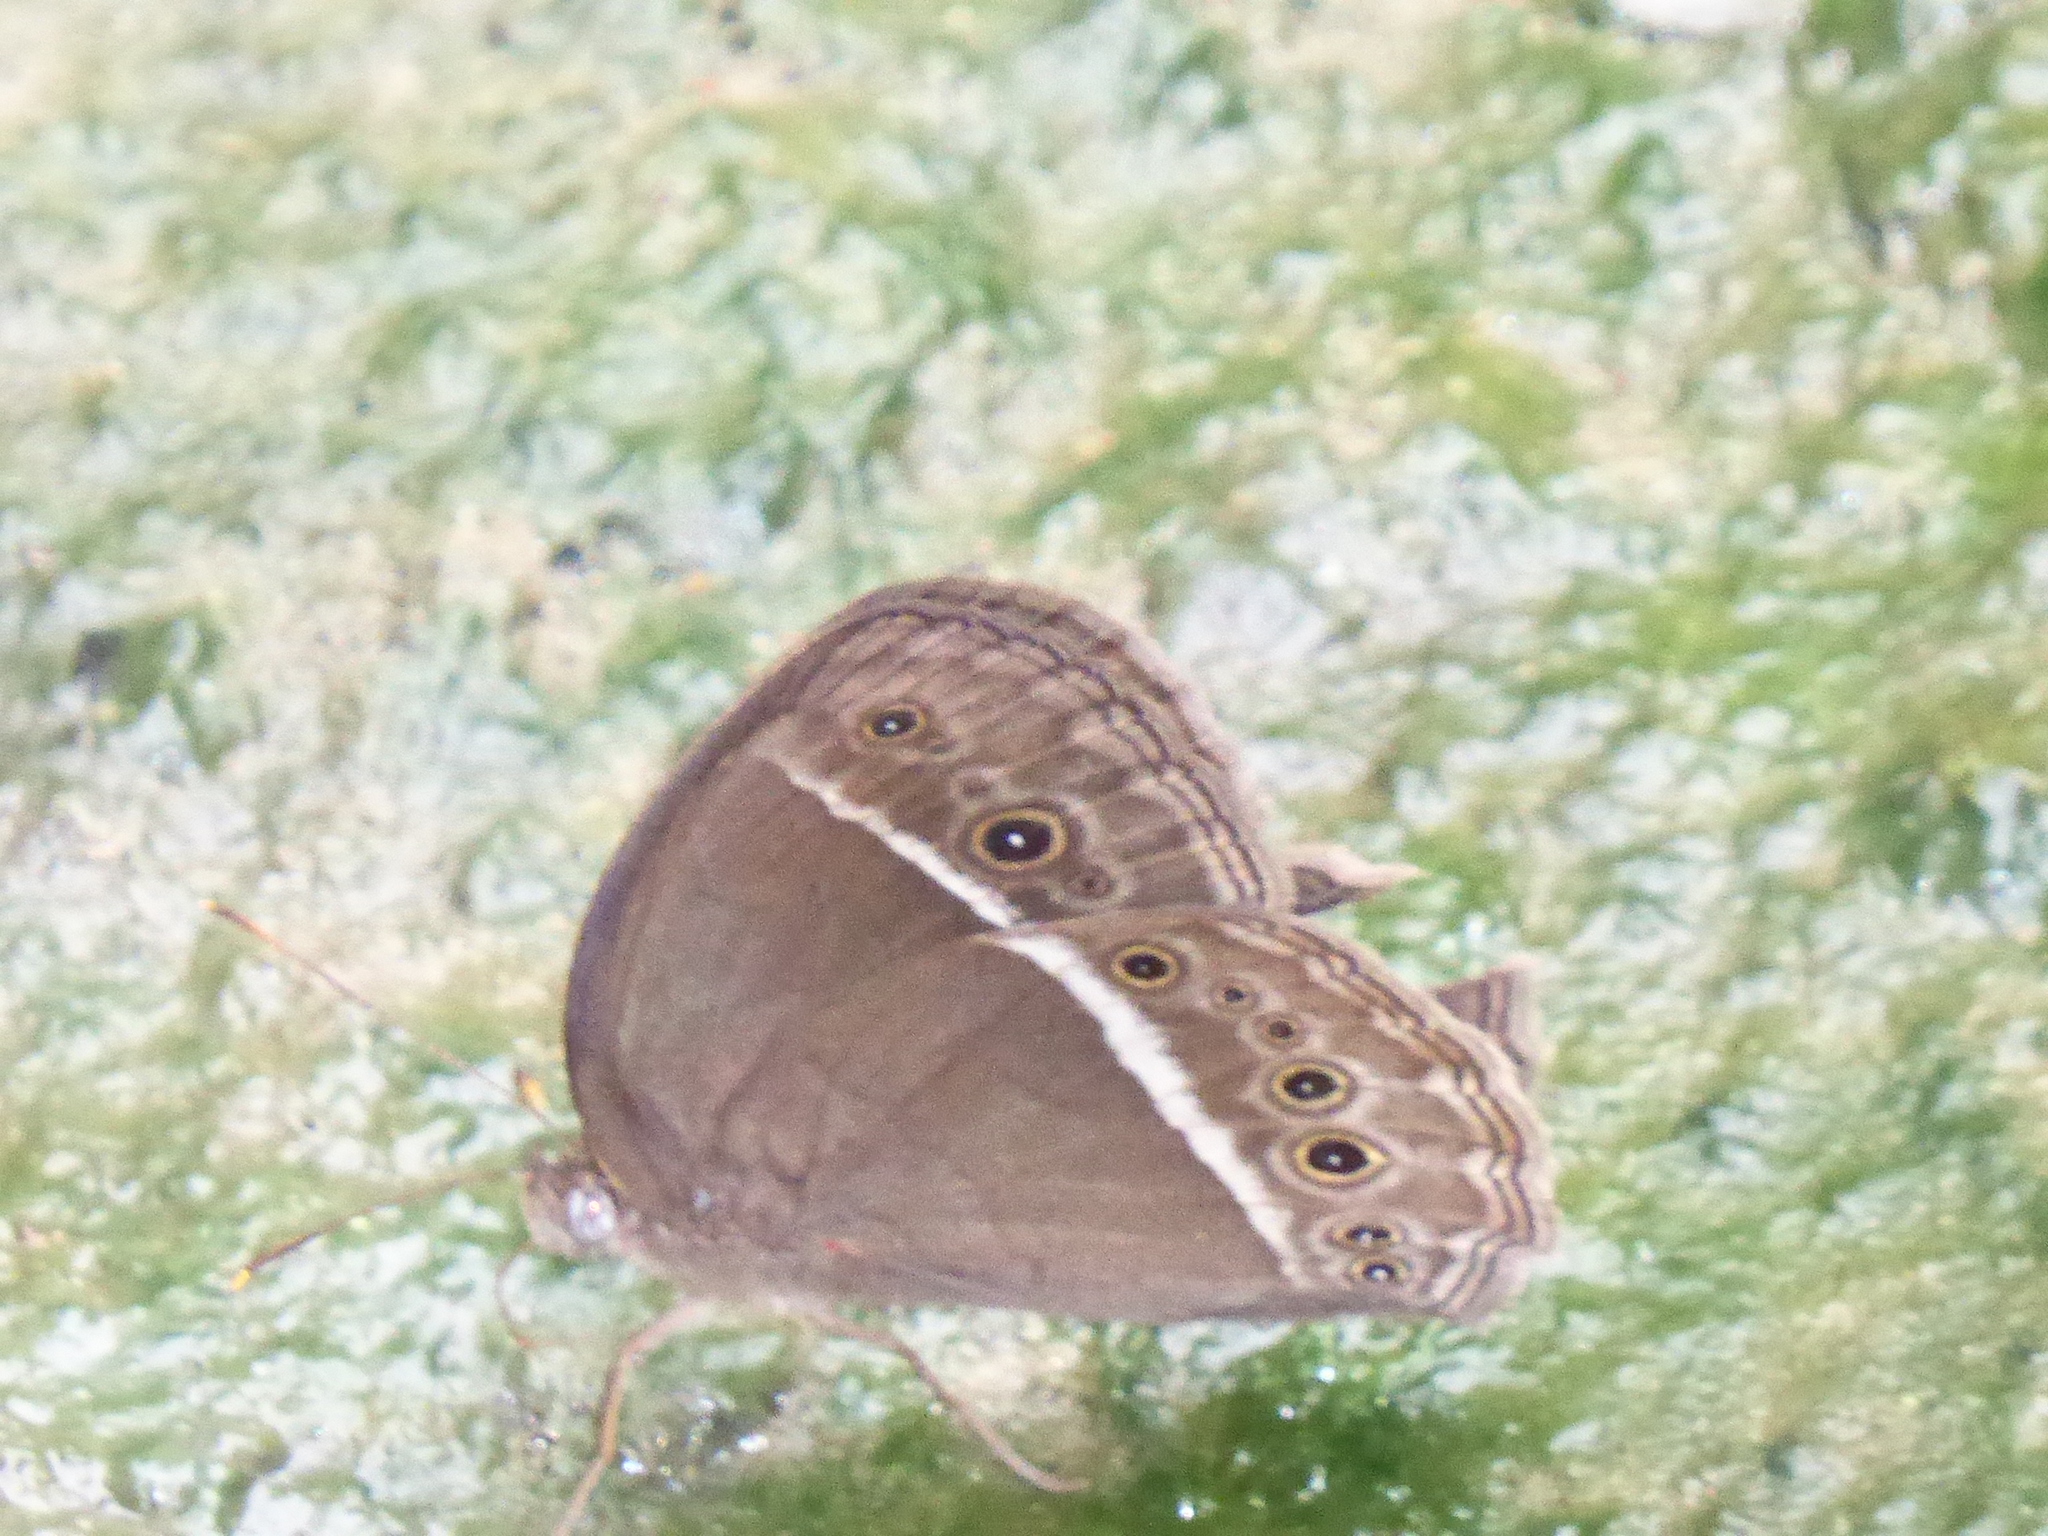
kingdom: Animalia
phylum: Arthropoda
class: Insecta
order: Lepidoptera
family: Nymphalidae
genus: Mycalesis
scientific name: Mycalesis horsfieldii
